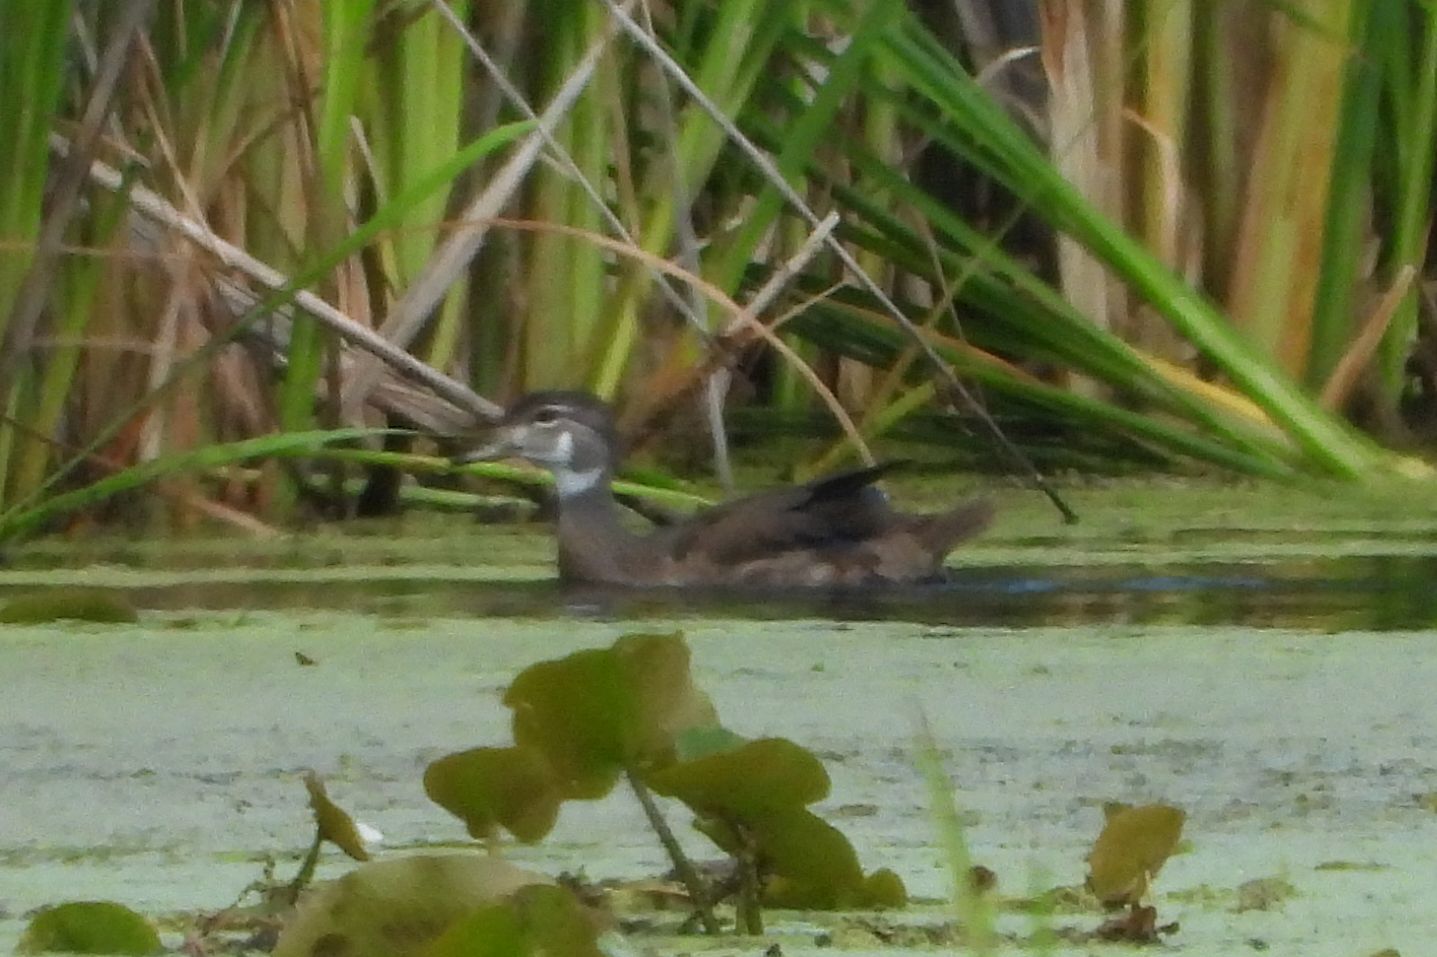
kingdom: Animalia
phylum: Chordata
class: Aves
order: Anseriformes
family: Anatidae
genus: Aix
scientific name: Aix sponsa
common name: Wood duck
